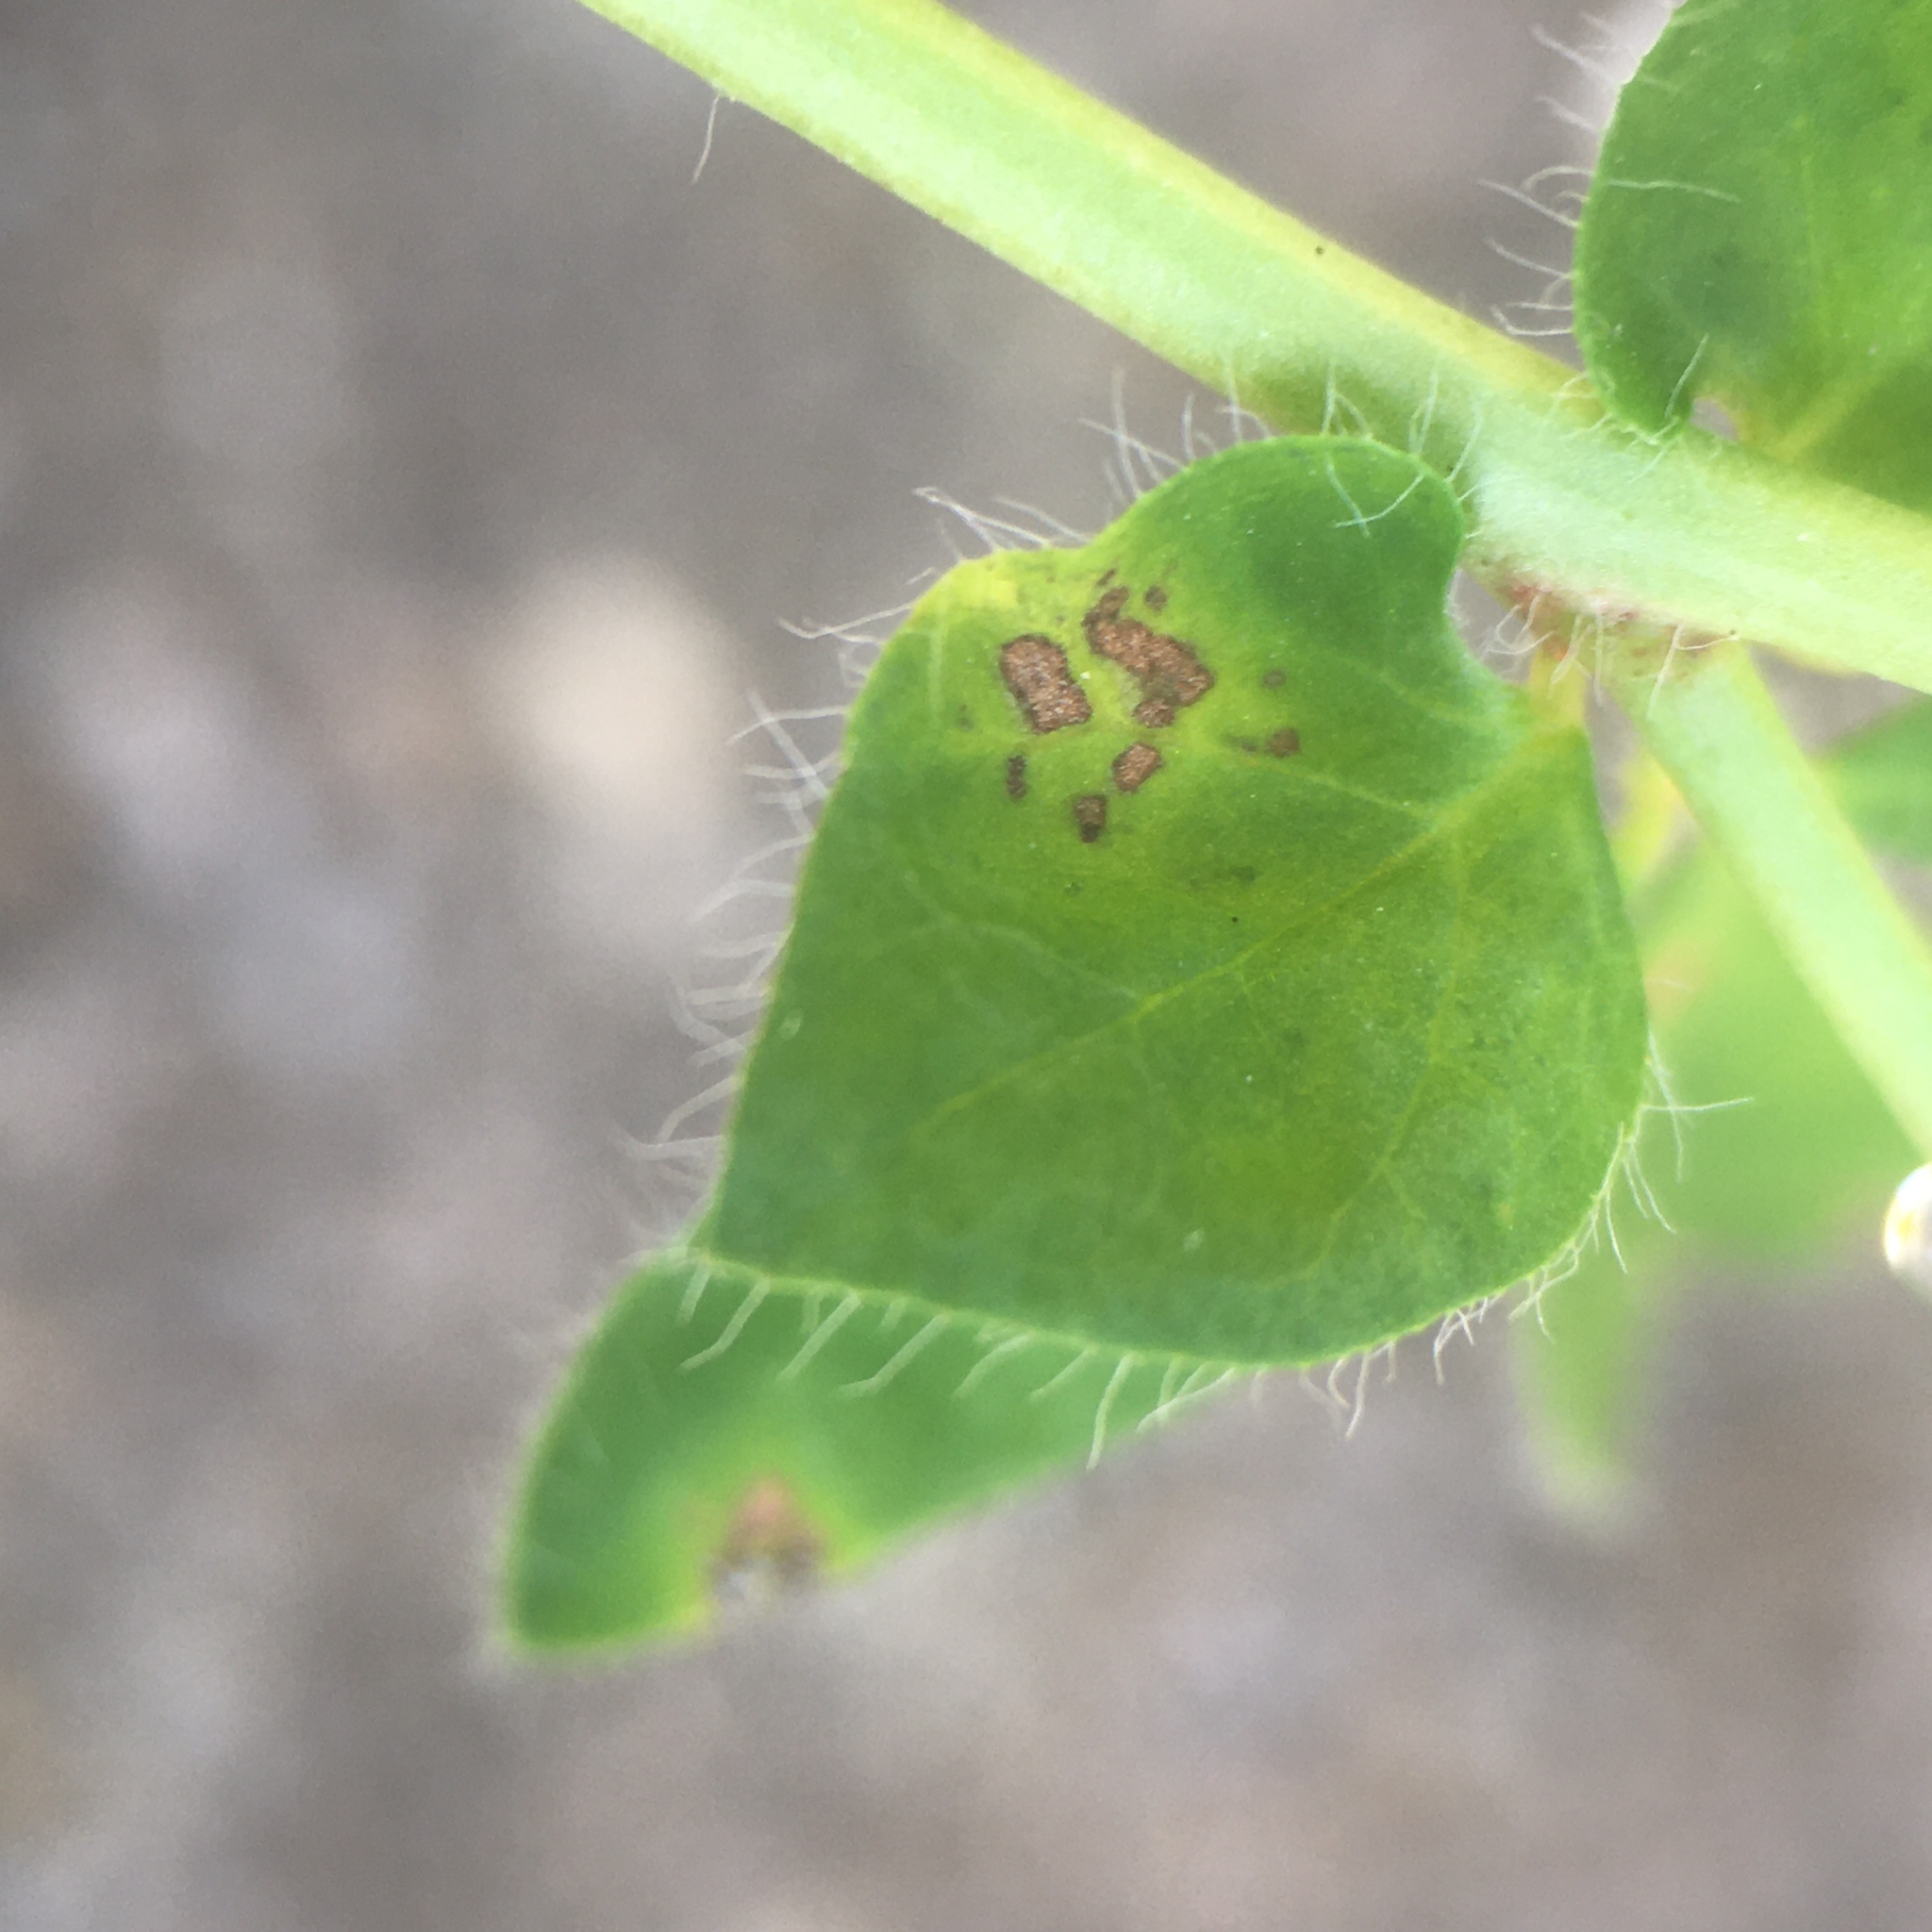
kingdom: Plantae
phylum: Tracheophyta
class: Magnoliopsida
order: Fabales
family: Fabaceae
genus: Lotus
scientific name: Lotus pedunculatus
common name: Greater birdsfoot-trefoil
